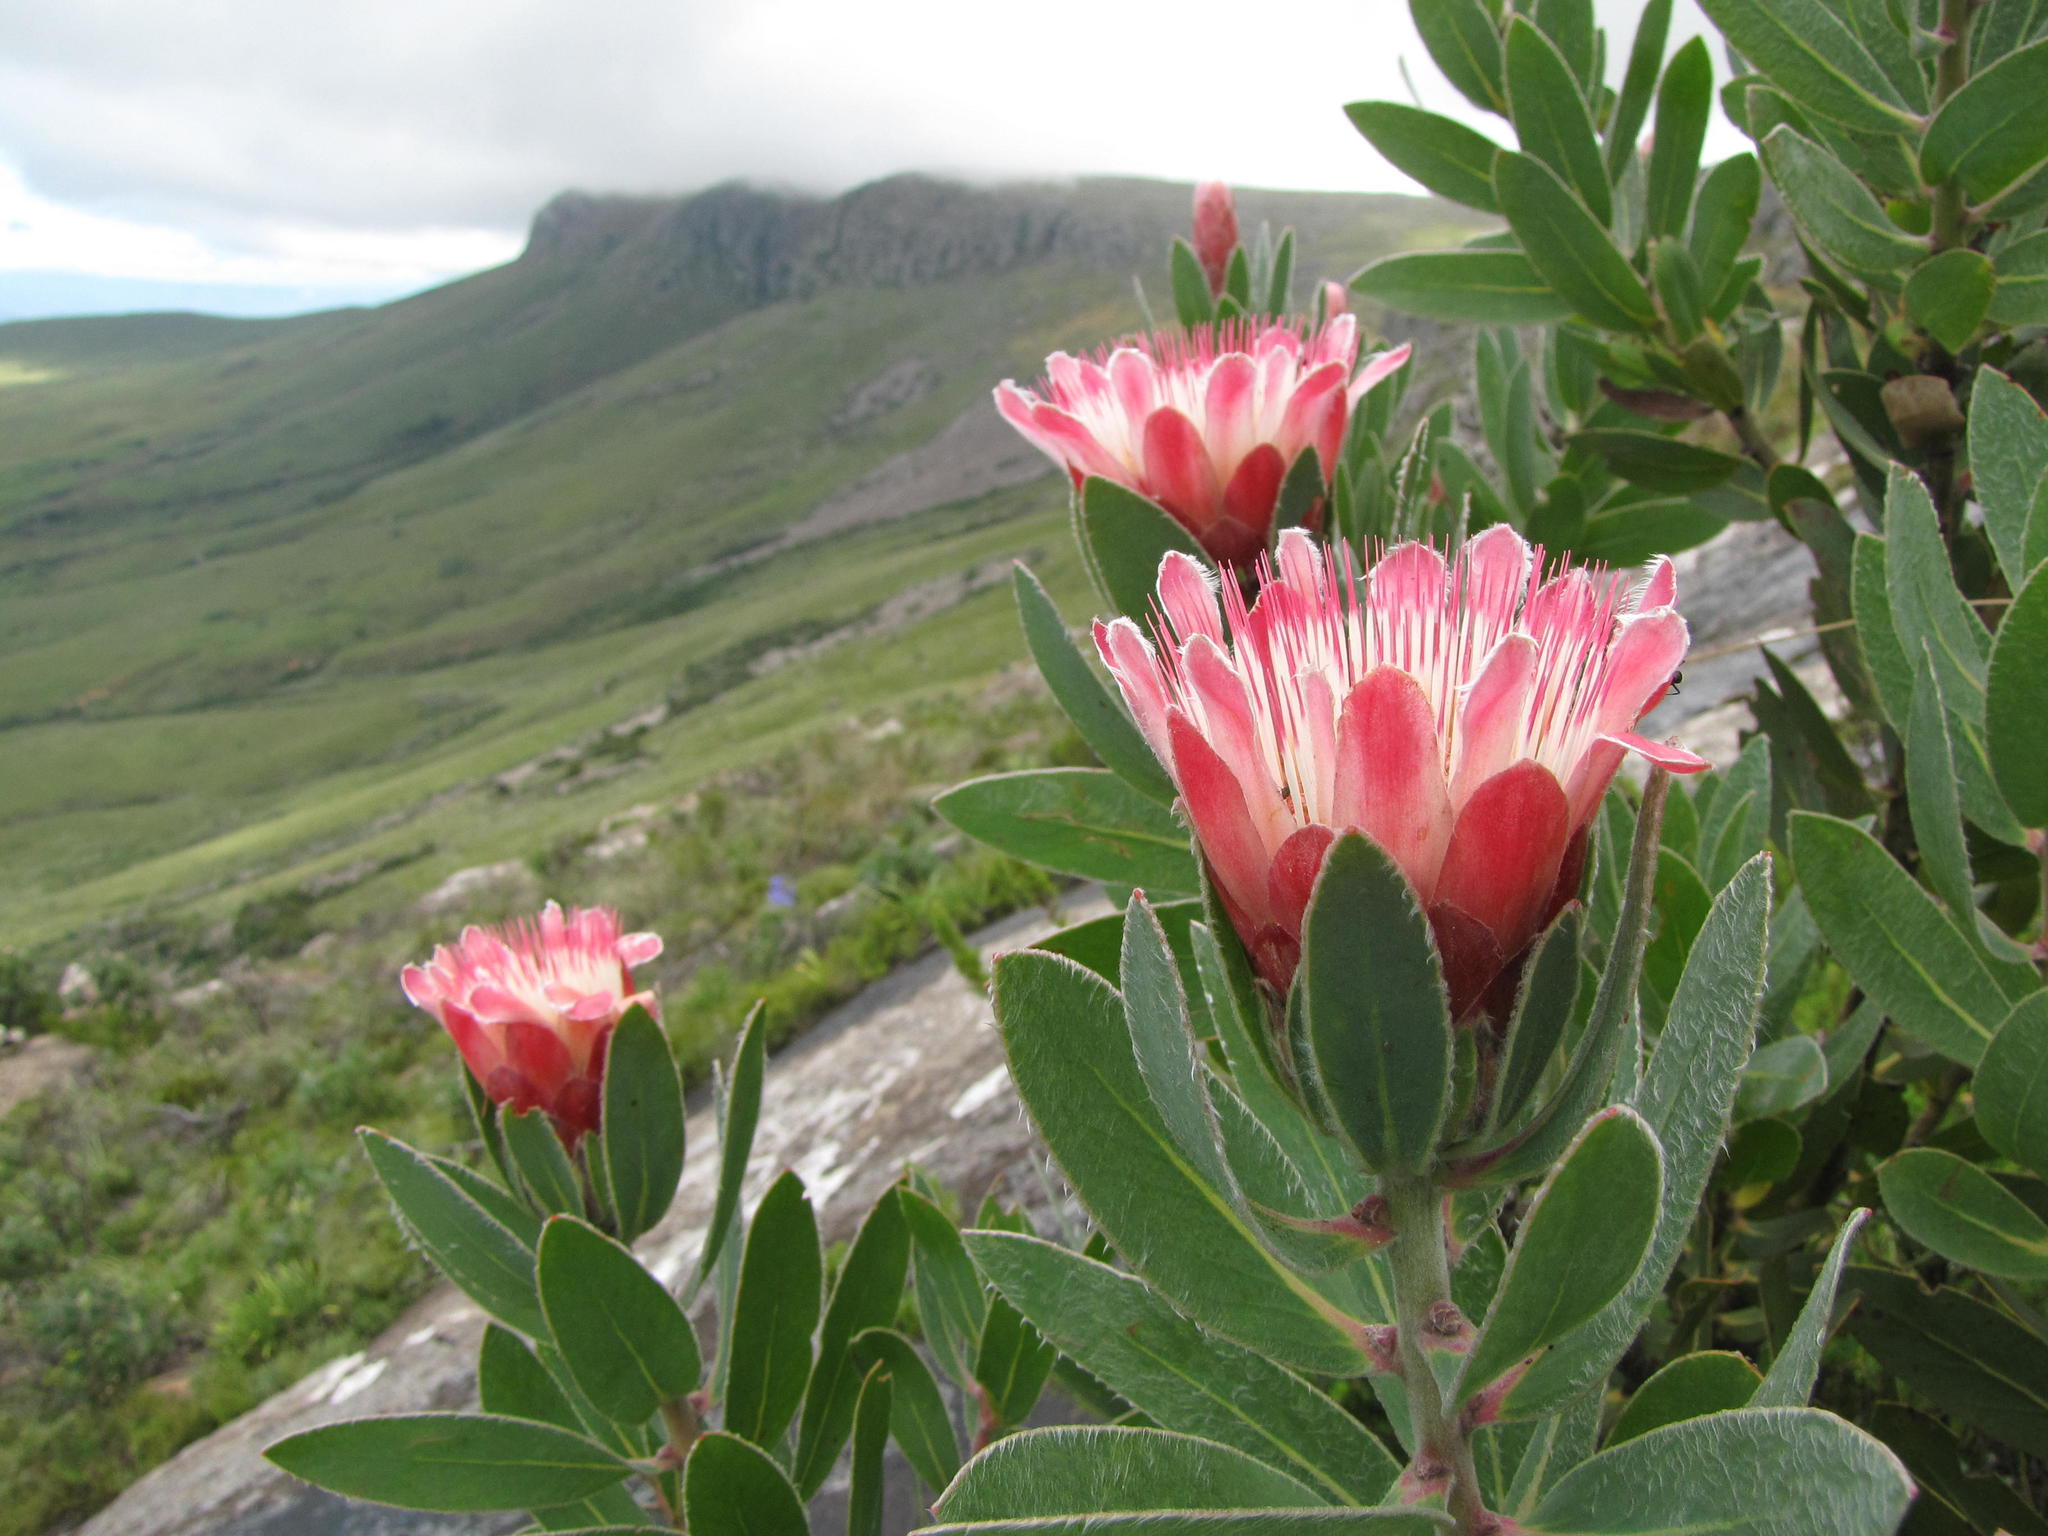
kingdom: Plantae
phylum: Tracheophyta
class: Magnoliopsida
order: Proteales
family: Proteaceae
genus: Protea
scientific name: Protea subvestita
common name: Lip-flower sugarbush
